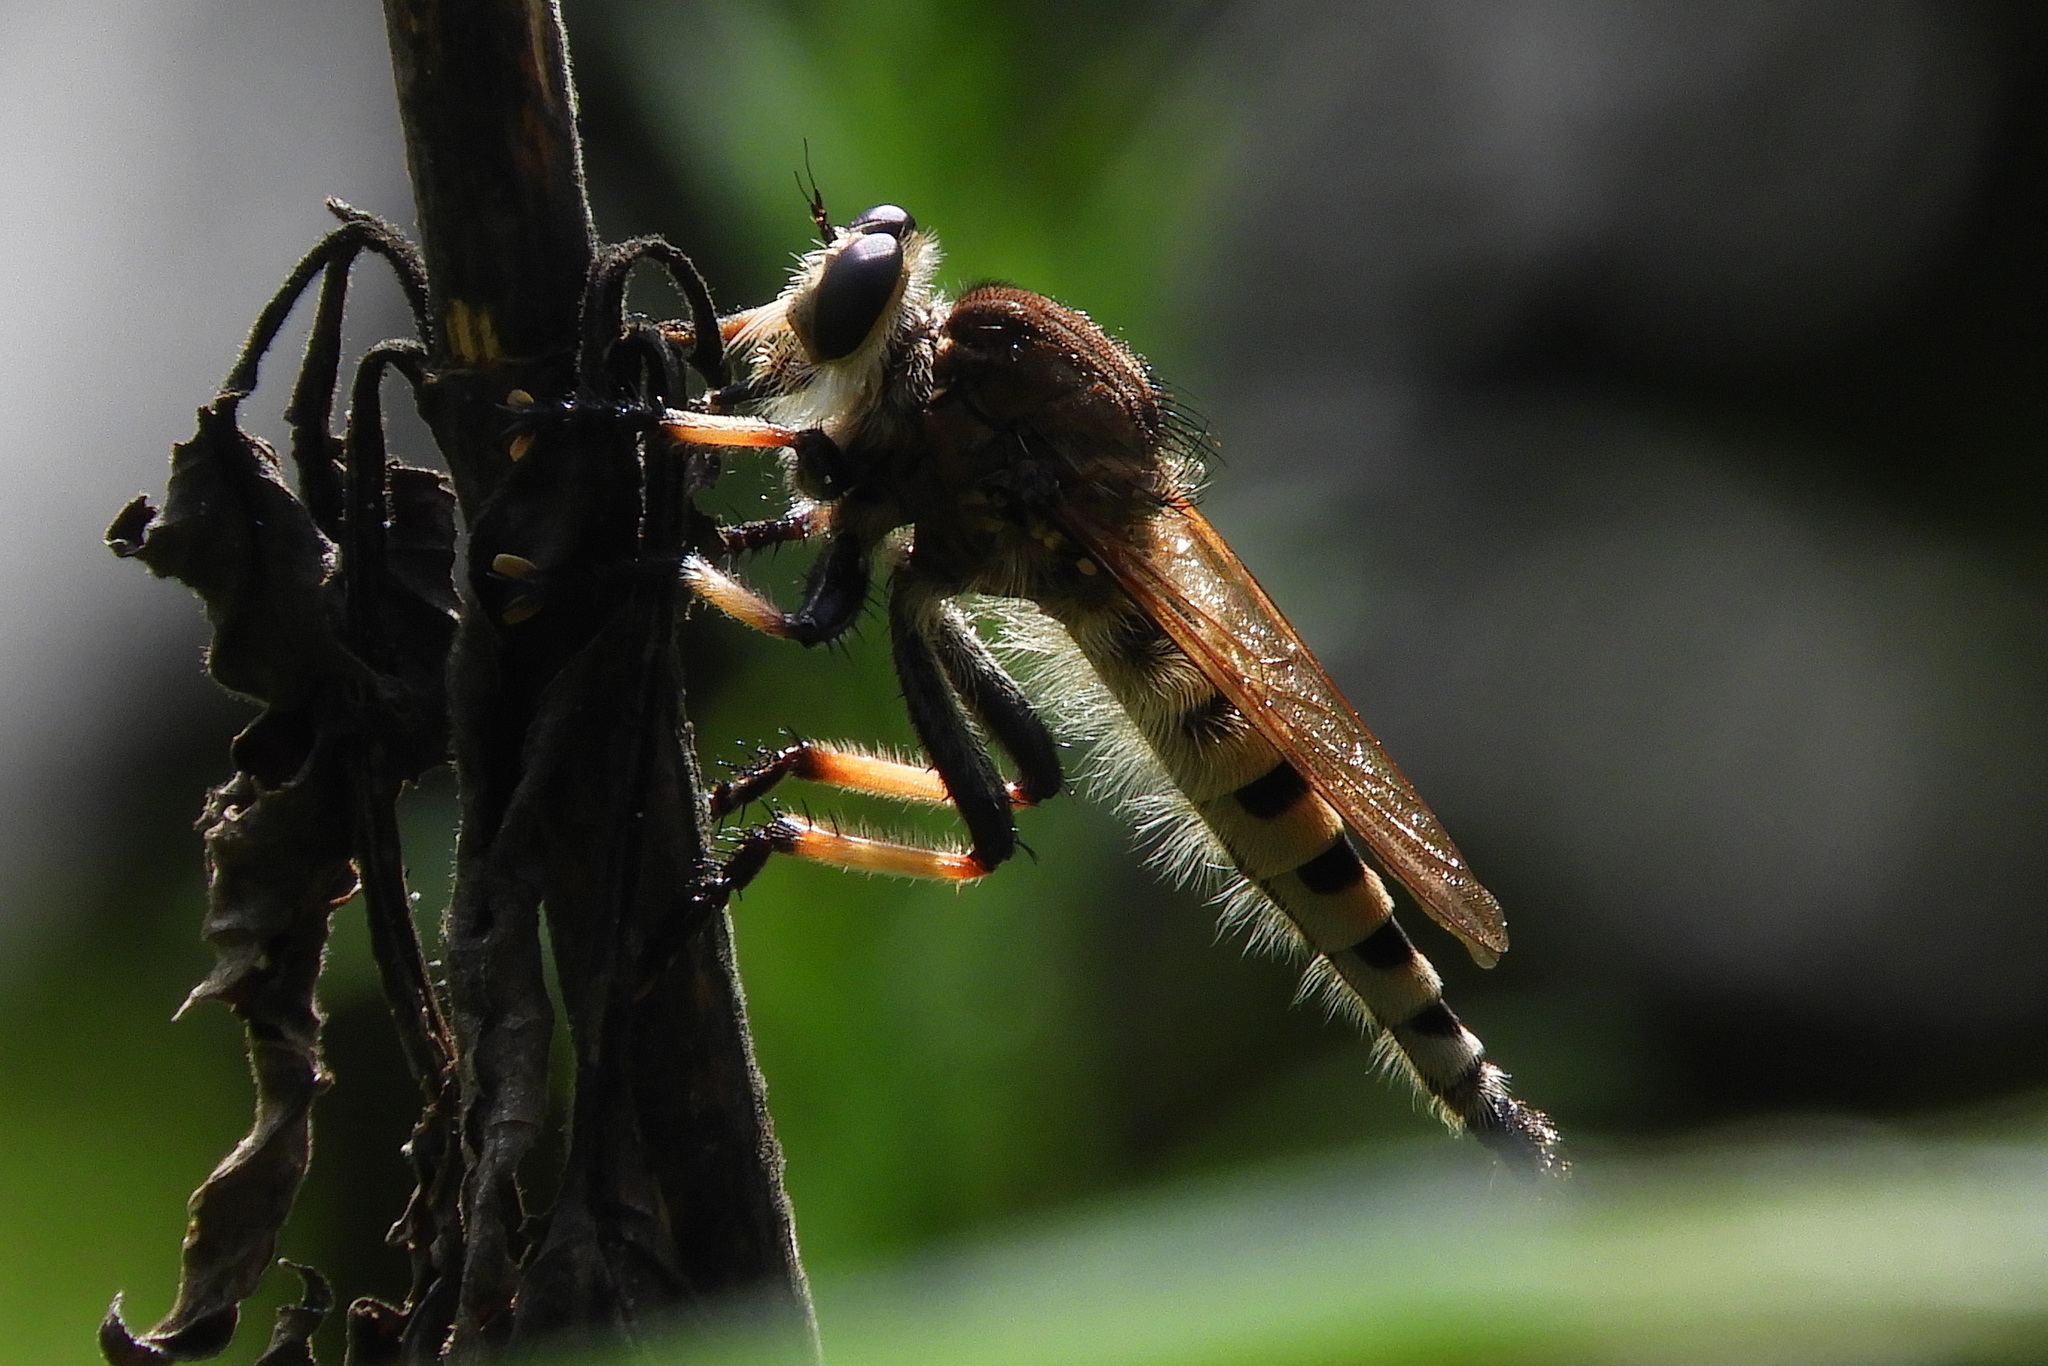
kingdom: Animalia
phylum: Arthropoda
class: Insecta
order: Diptera
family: Asilidae
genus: Promachus
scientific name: Promachus rufipes
